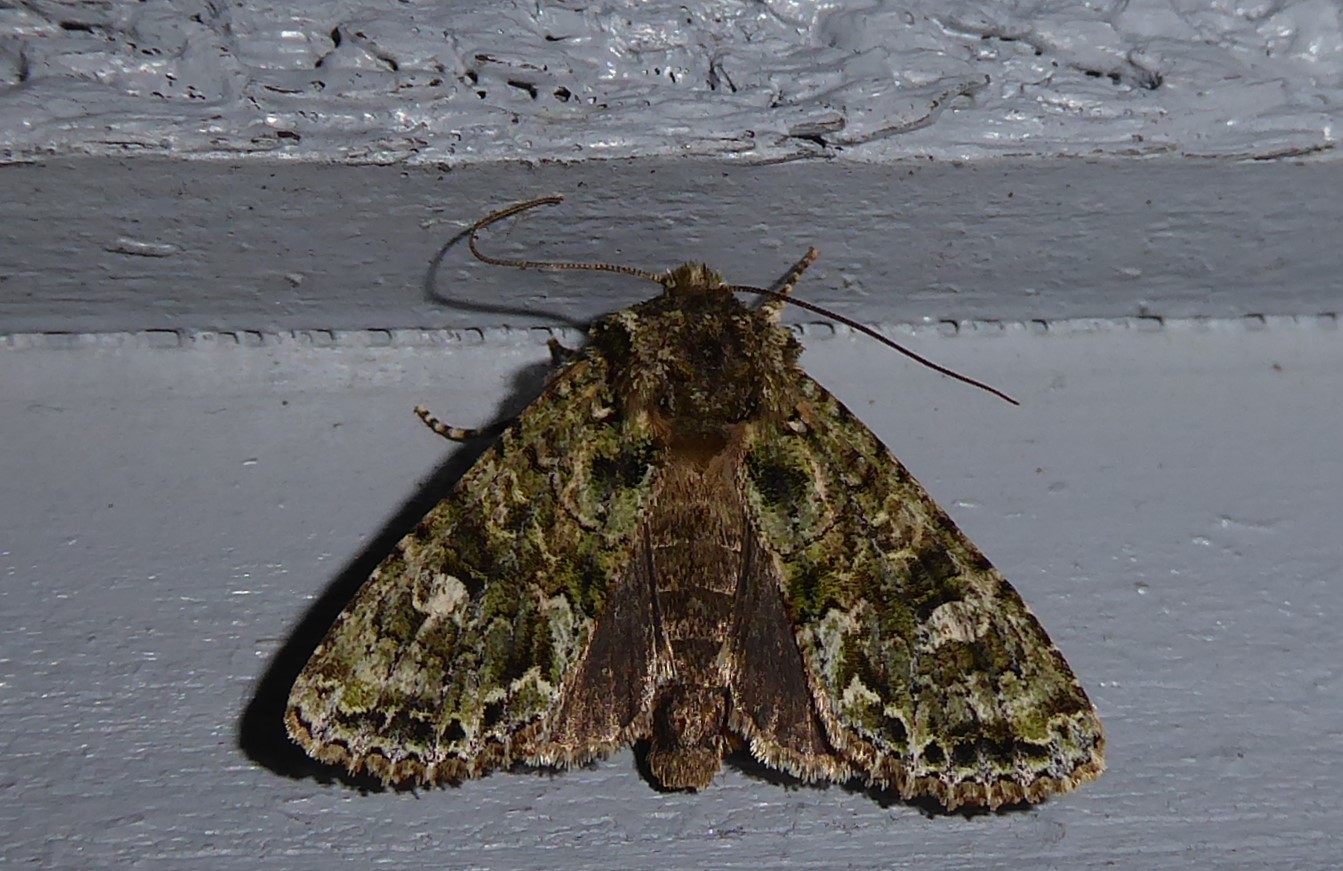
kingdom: Animalia
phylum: Arthropoda
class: Insecta
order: Lepidoptera
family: Noctuidae
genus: Ichneutica
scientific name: Ichneutica
